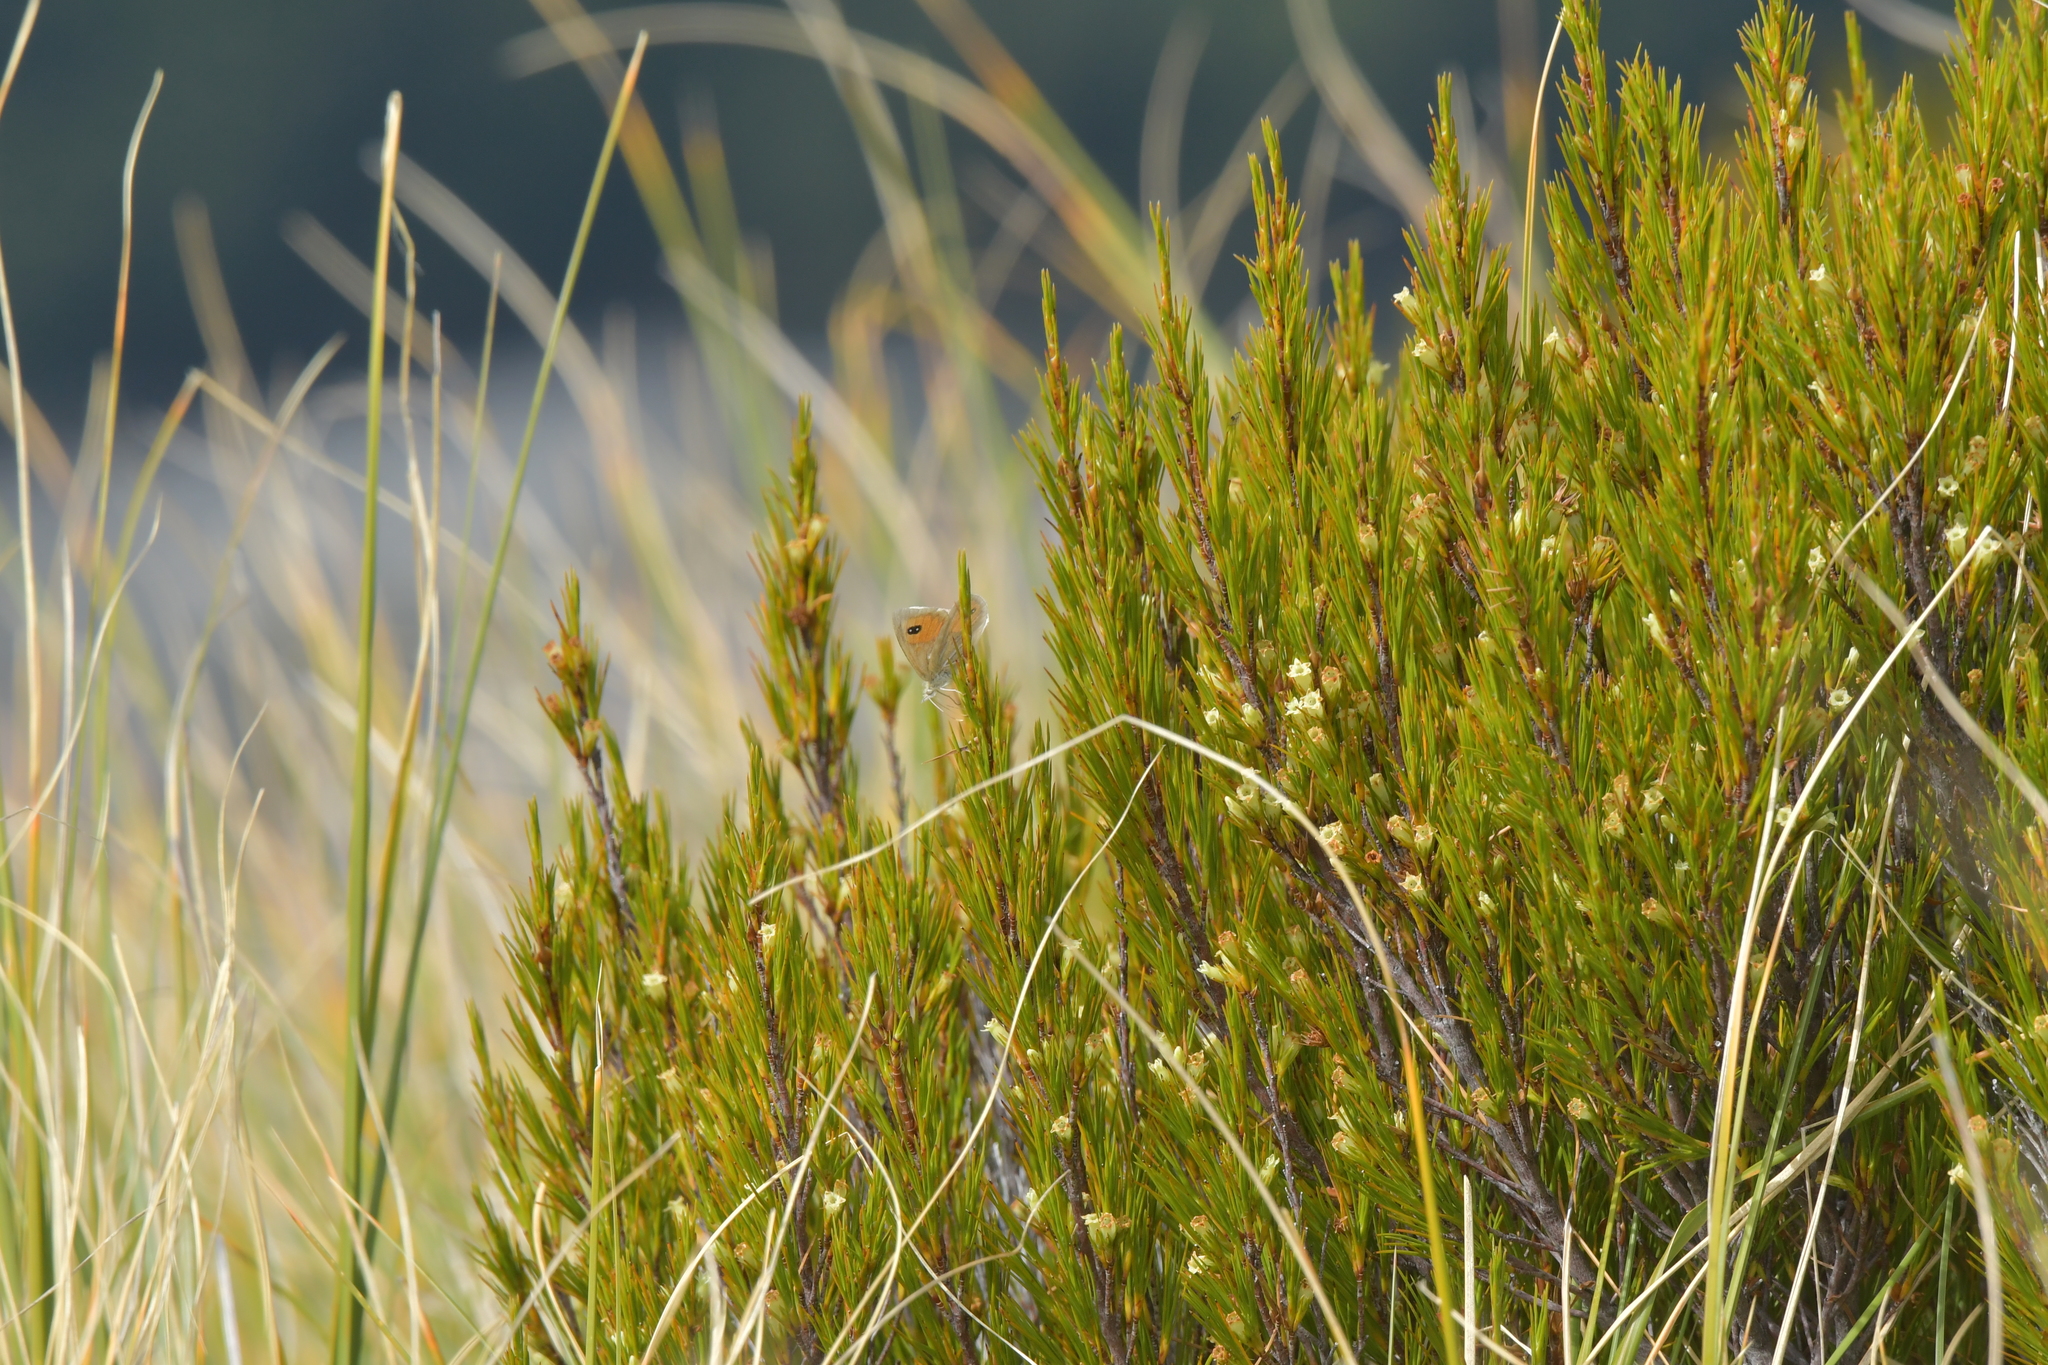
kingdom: Animalia
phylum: Arthropoda
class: Insecta
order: Lepidoptera
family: Nymphalidae
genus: Argyrophenga
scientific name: Argyrophenga janitae
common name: Janita's tussock
